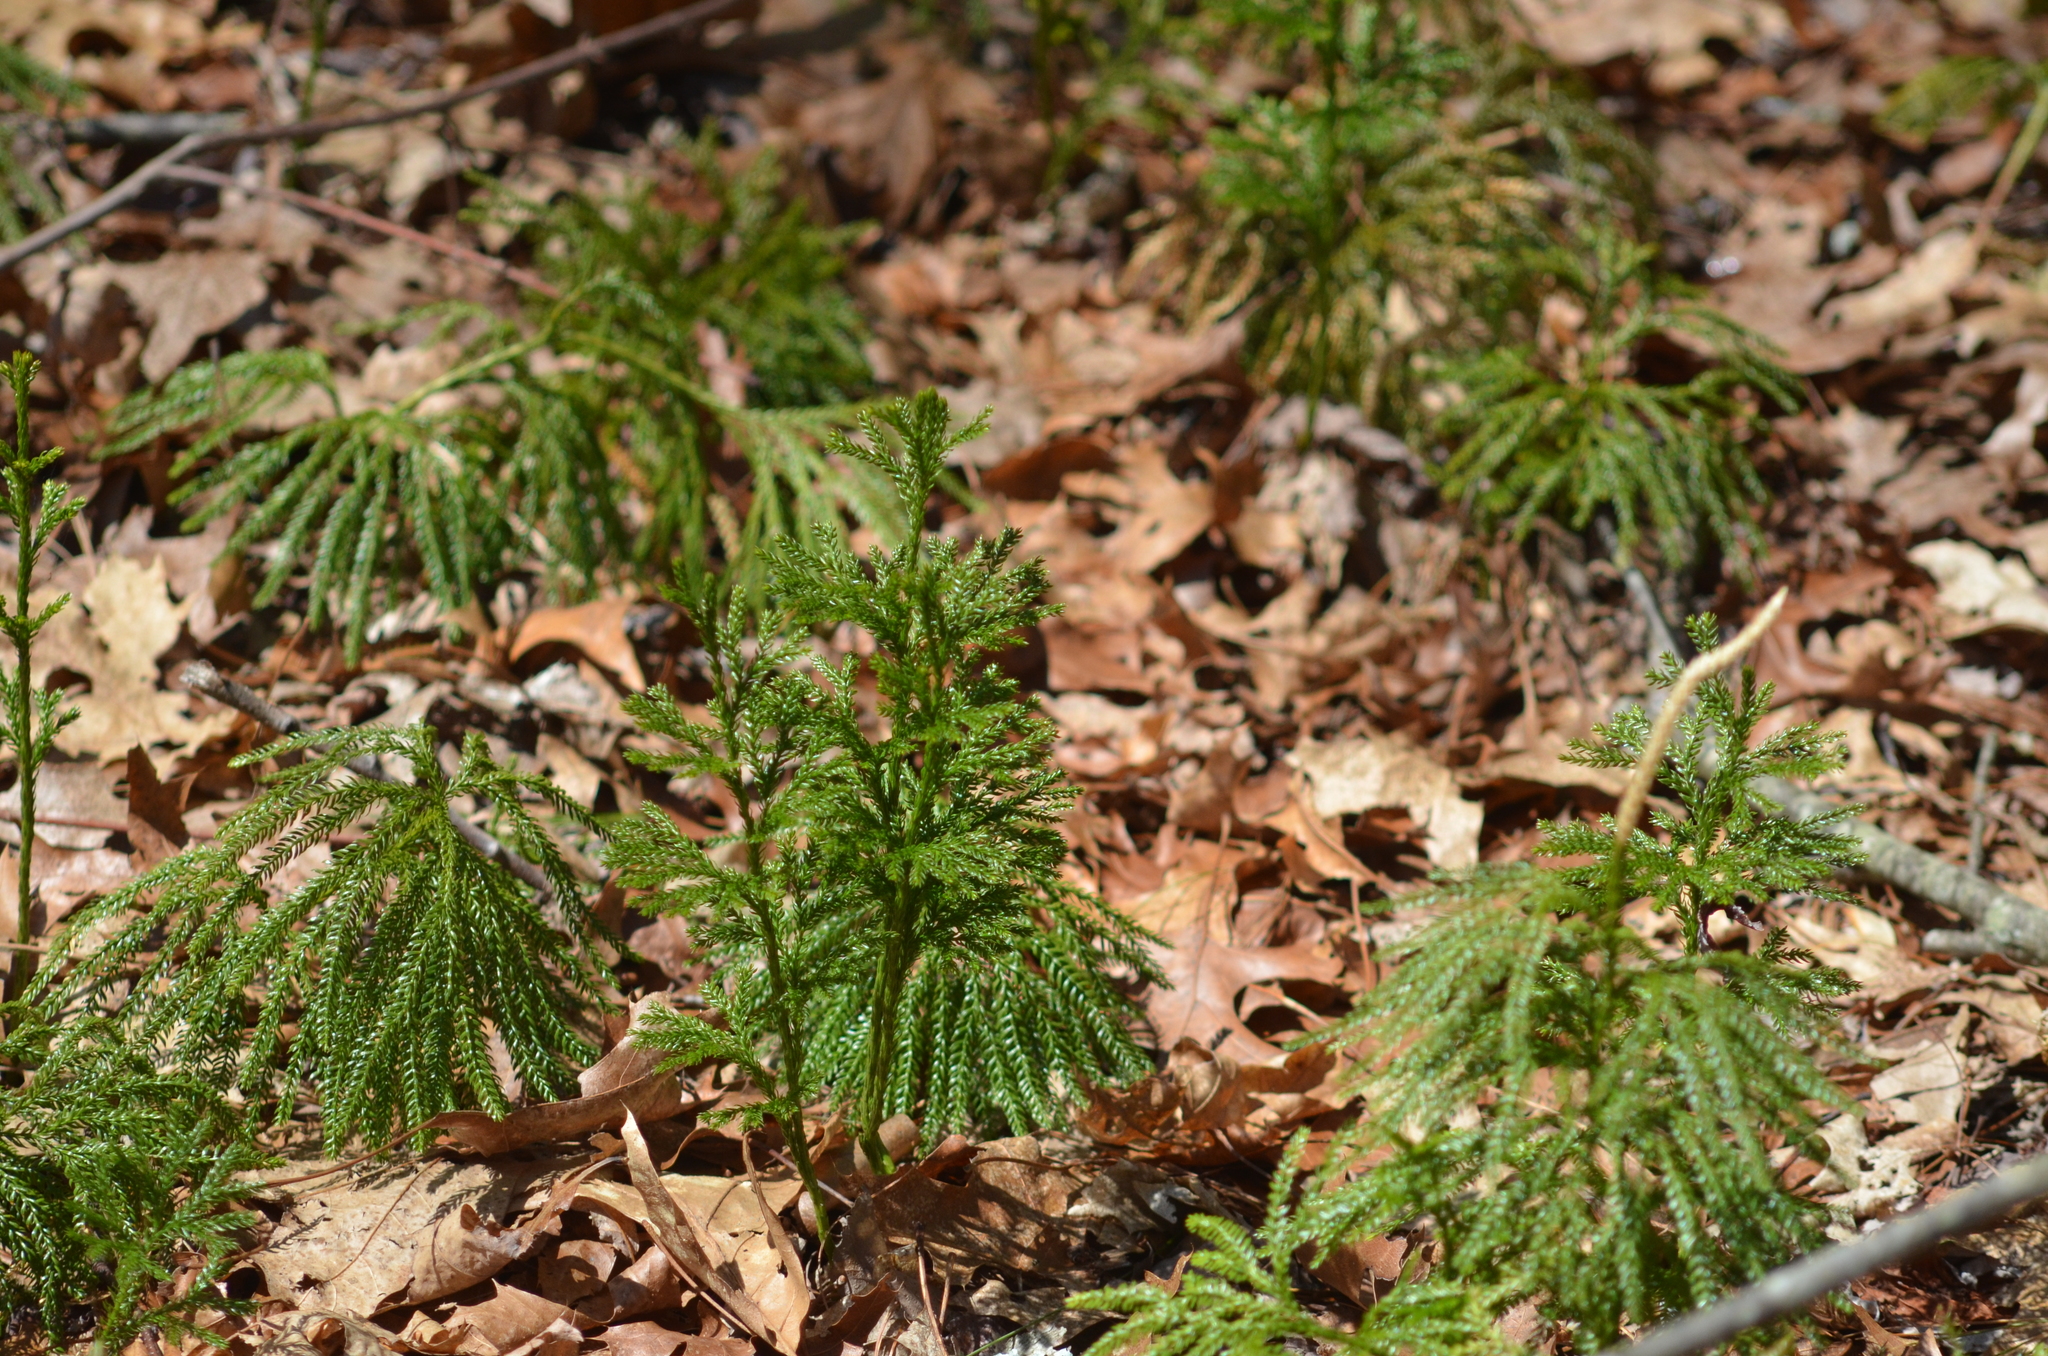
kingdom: Plantae
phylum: Tracheophyta
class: Lycopodiopsida
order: Lycopodiales
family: Lycopodiaceae
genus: Dendrolycopodium
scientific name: Dendrolycopodium obscurum
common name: Common ground-pine
